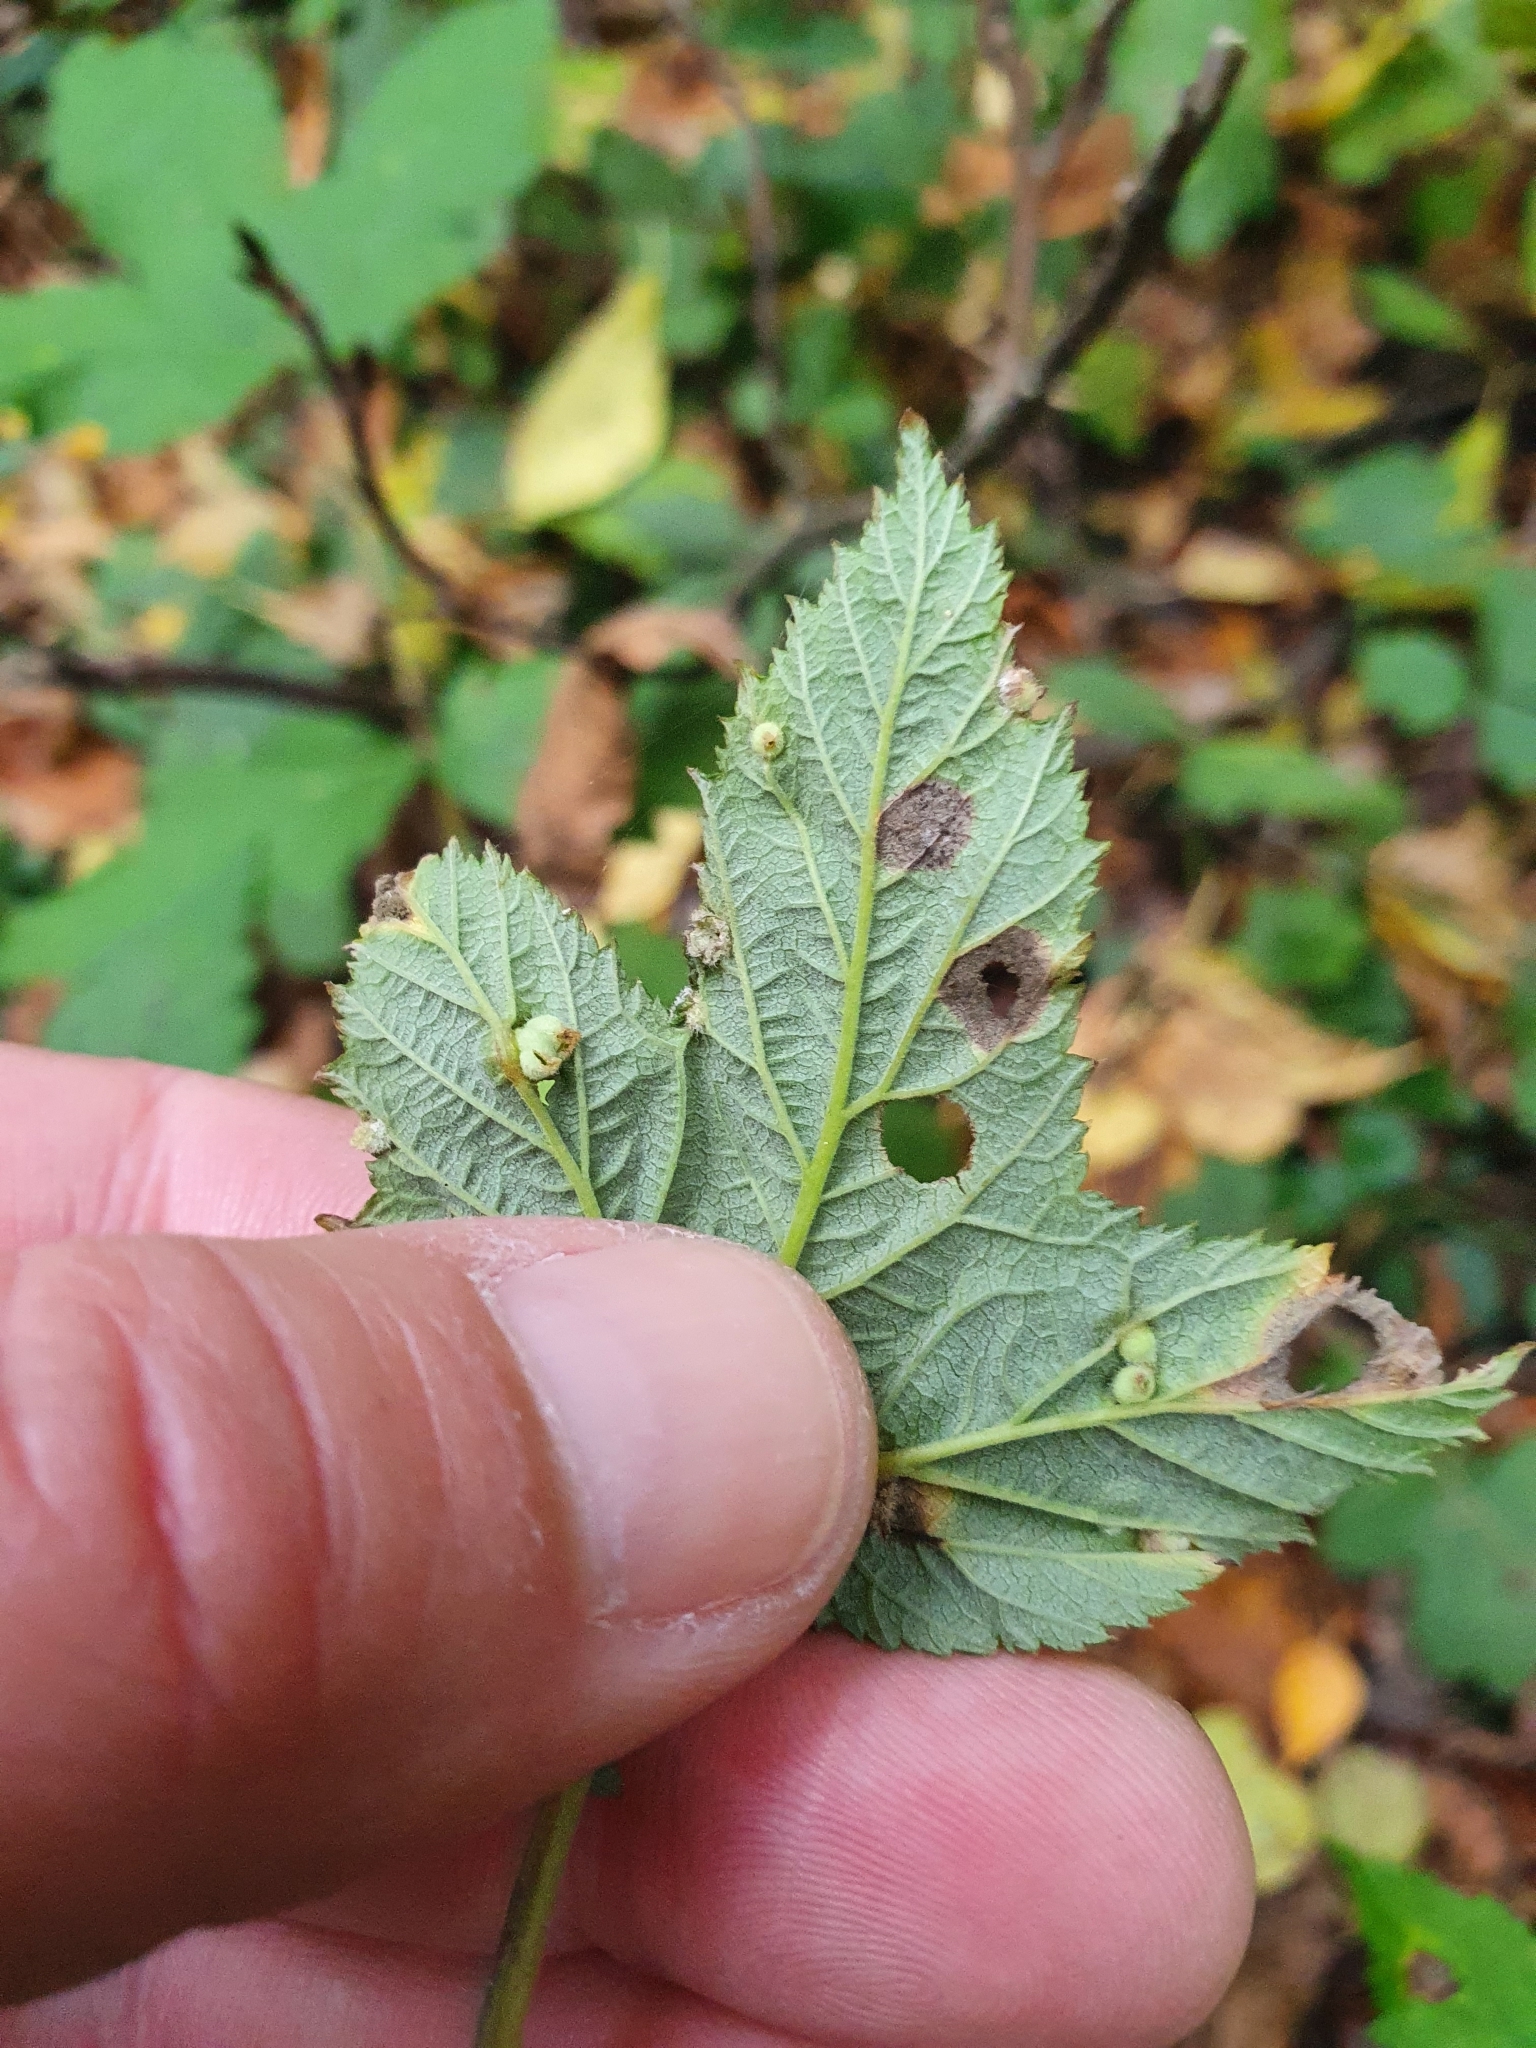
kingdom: Animalia
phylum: Arthropoda
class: Insecta
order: Diptera
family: Cecidomyiidae
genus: Dasineura
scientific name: Dasineura ulmaria
